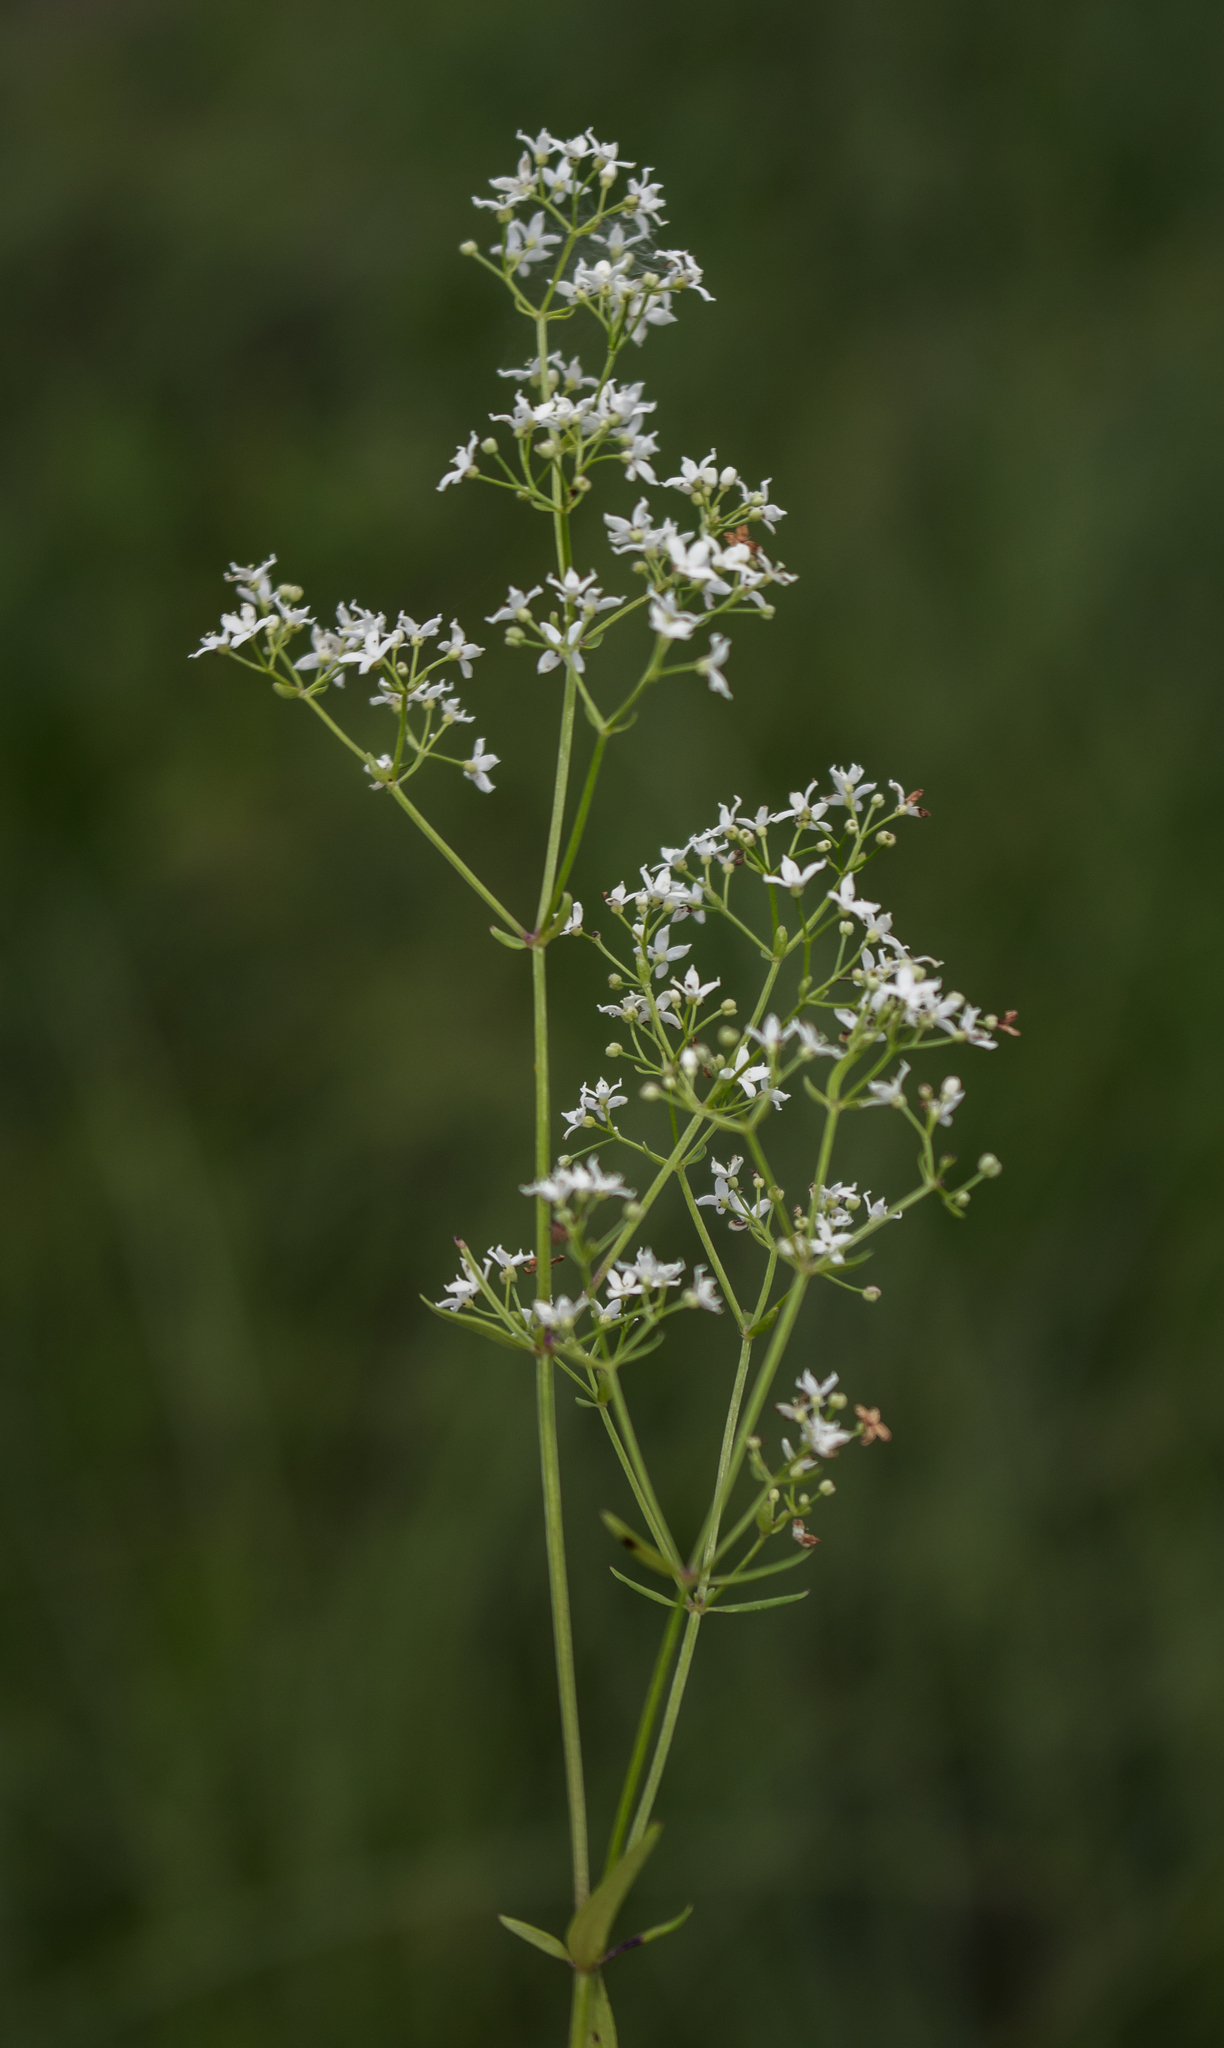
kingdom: Plantae
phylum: Tracheophyta
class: Magnoliopsida
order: Gentianales
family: Rubiaceae
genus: Galium
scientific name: Galium boreale
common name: Northern bedstraw
